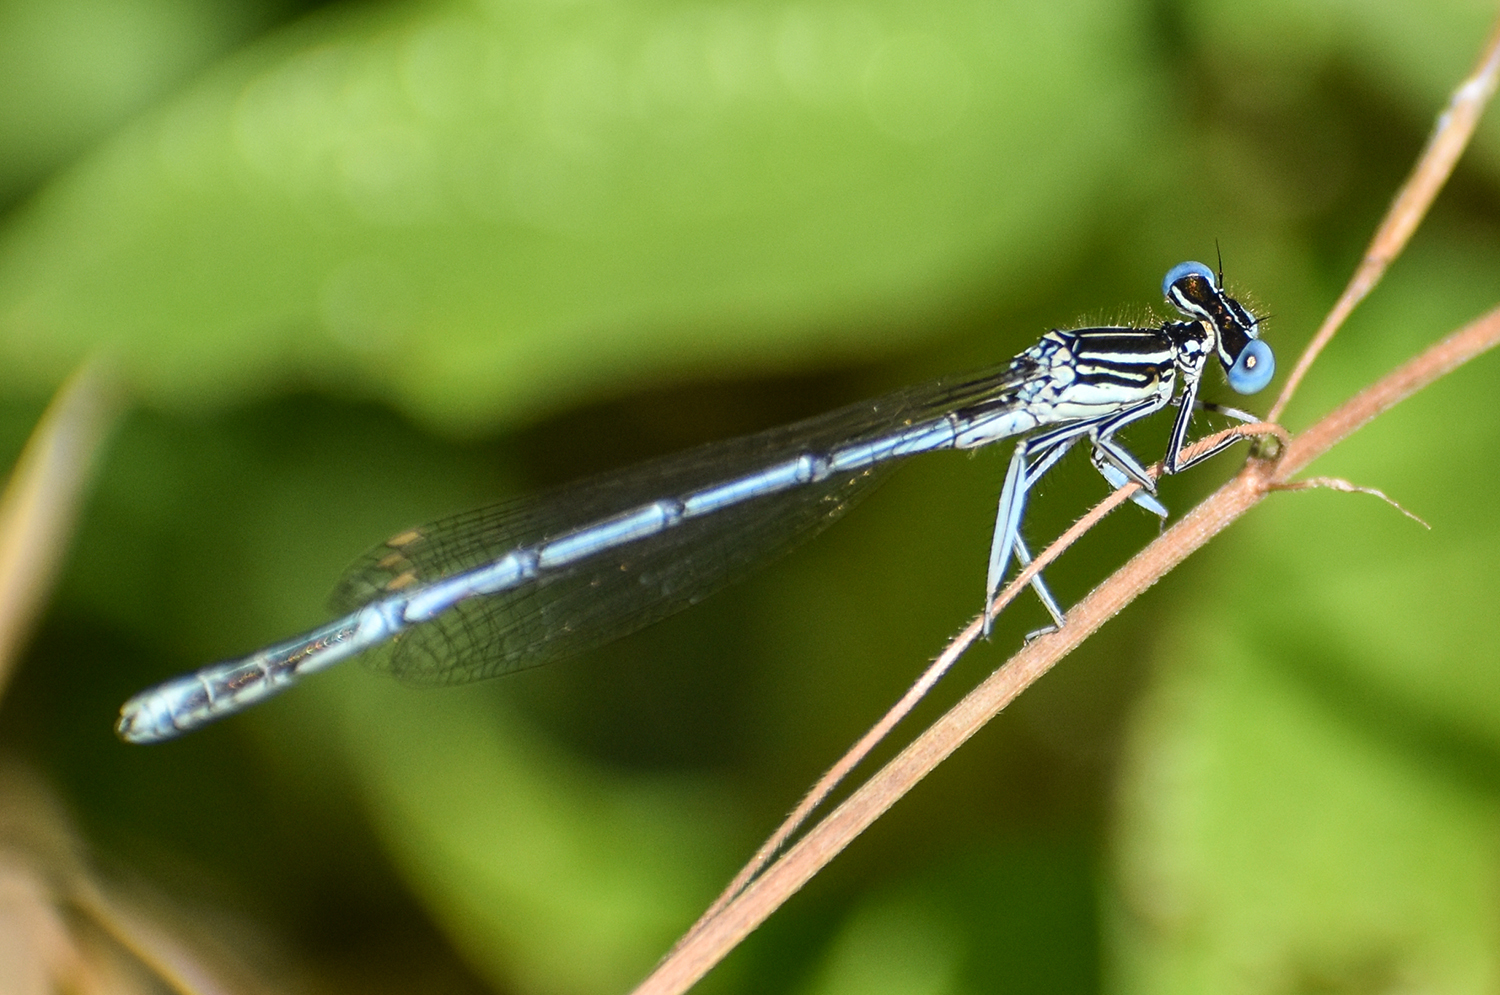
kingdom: Animalia
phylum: Arthropoda
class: Insecta
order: Odonata
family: Platycnemididae
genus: Platycnemis
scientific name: Platycnemis pennipes
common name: White-legged damselfly
